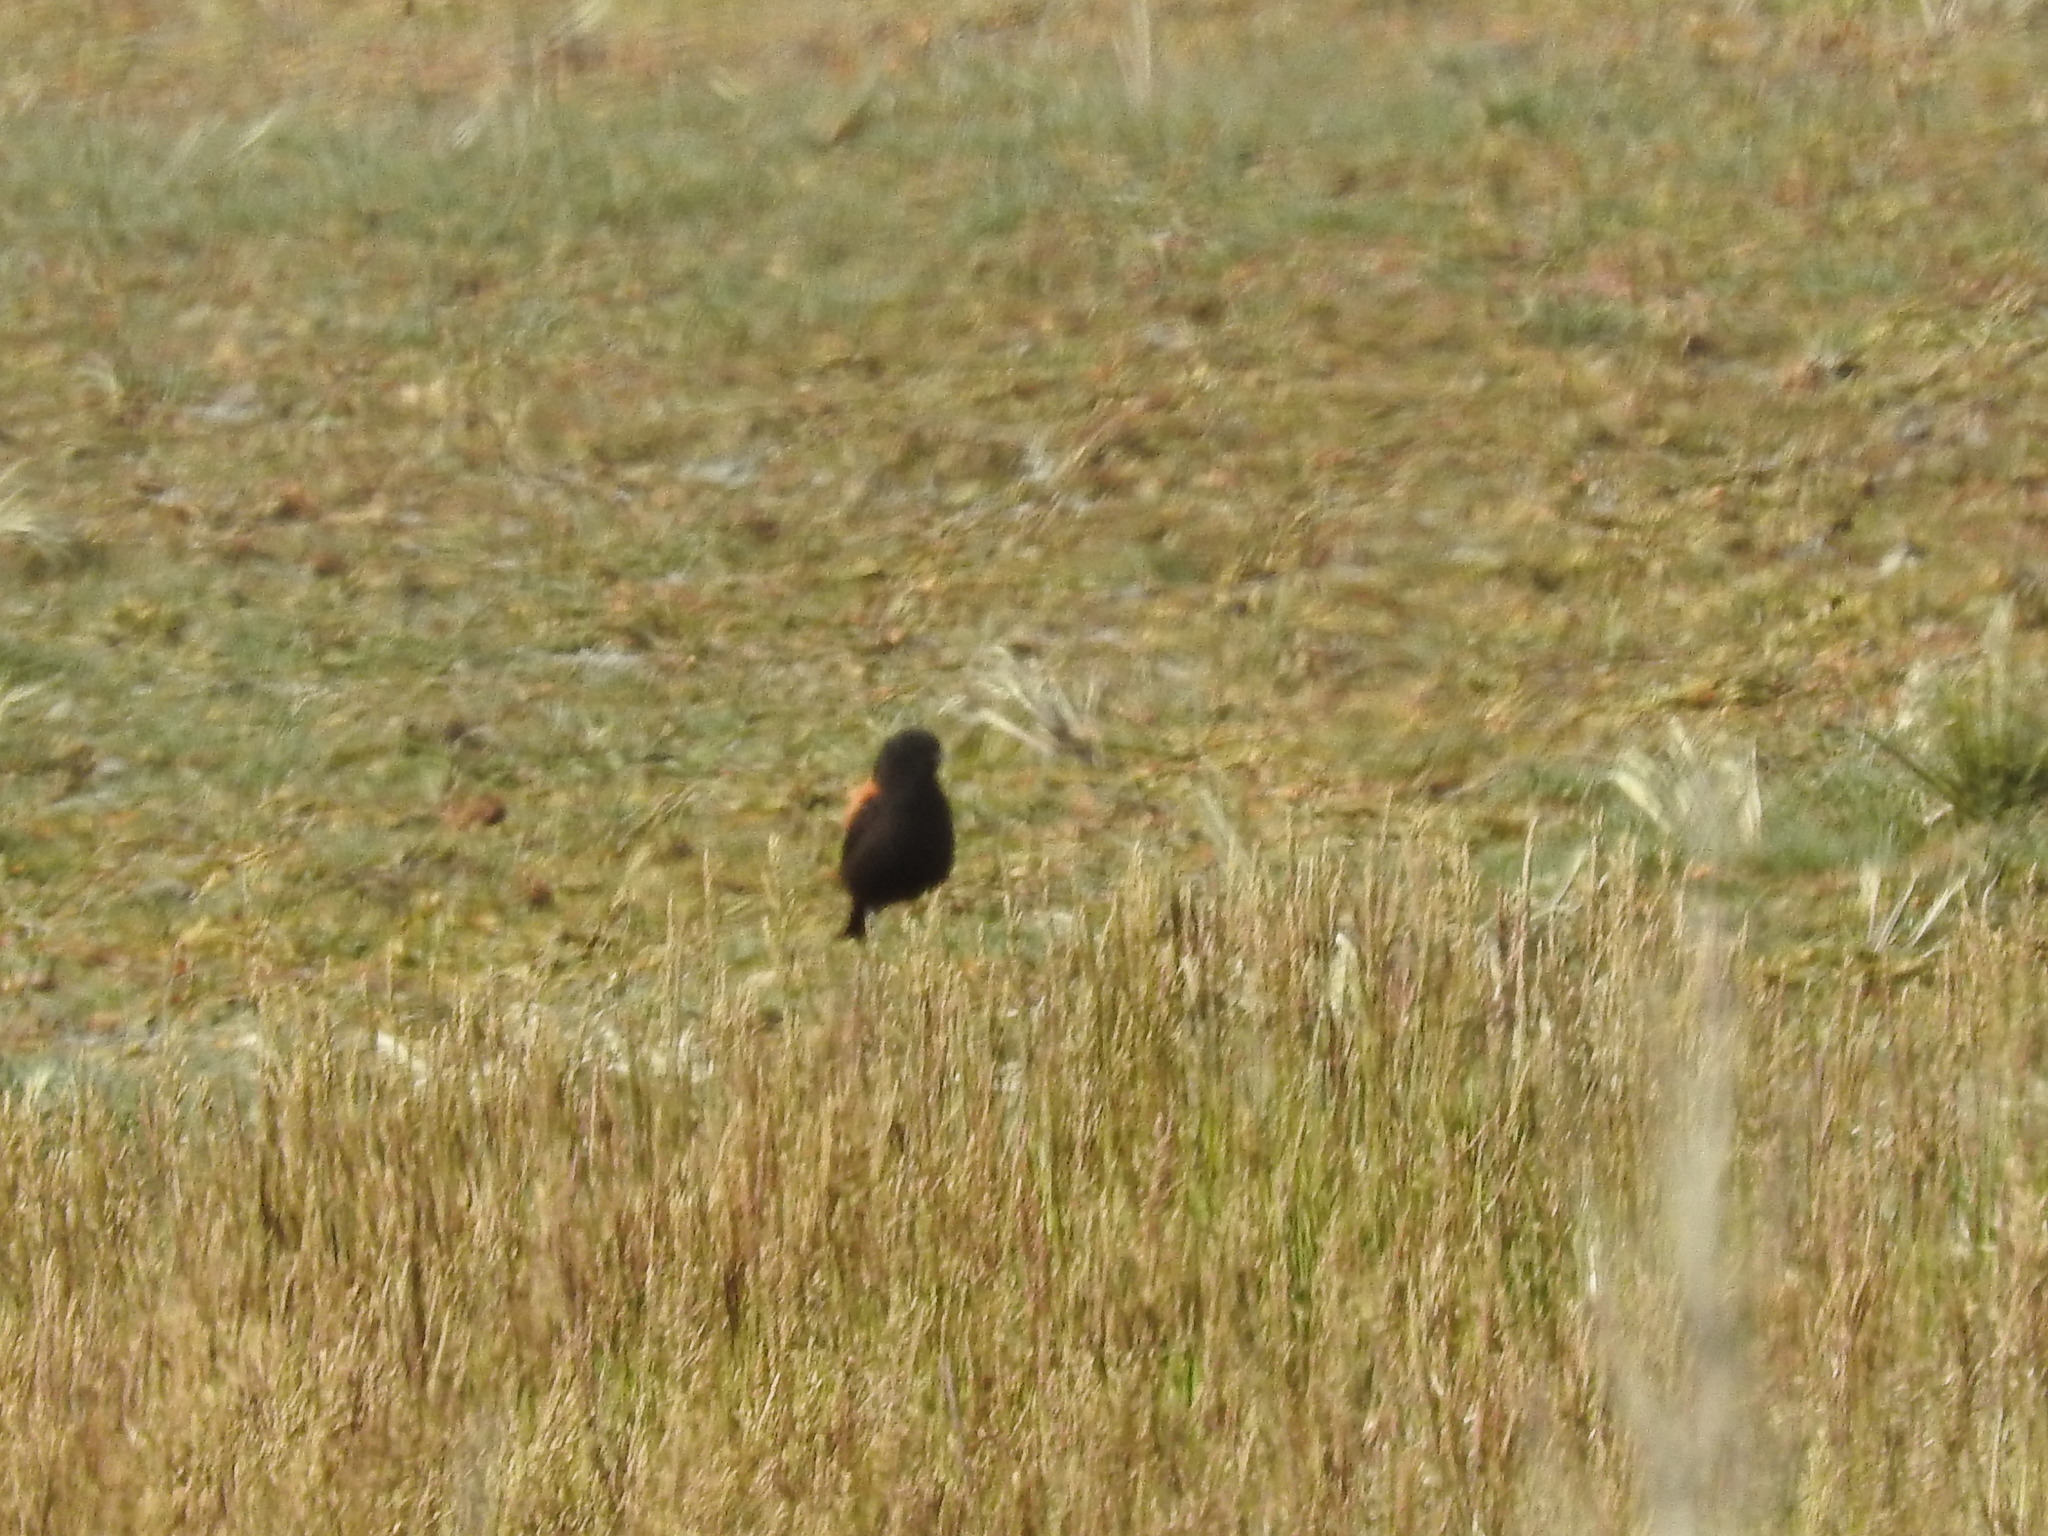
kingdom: Animalia
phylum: Chordata
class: Aves
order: Passeriformes
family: Tyrannidae
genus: Lessonia
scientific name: Lessonia rufa
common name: Austral negrito
